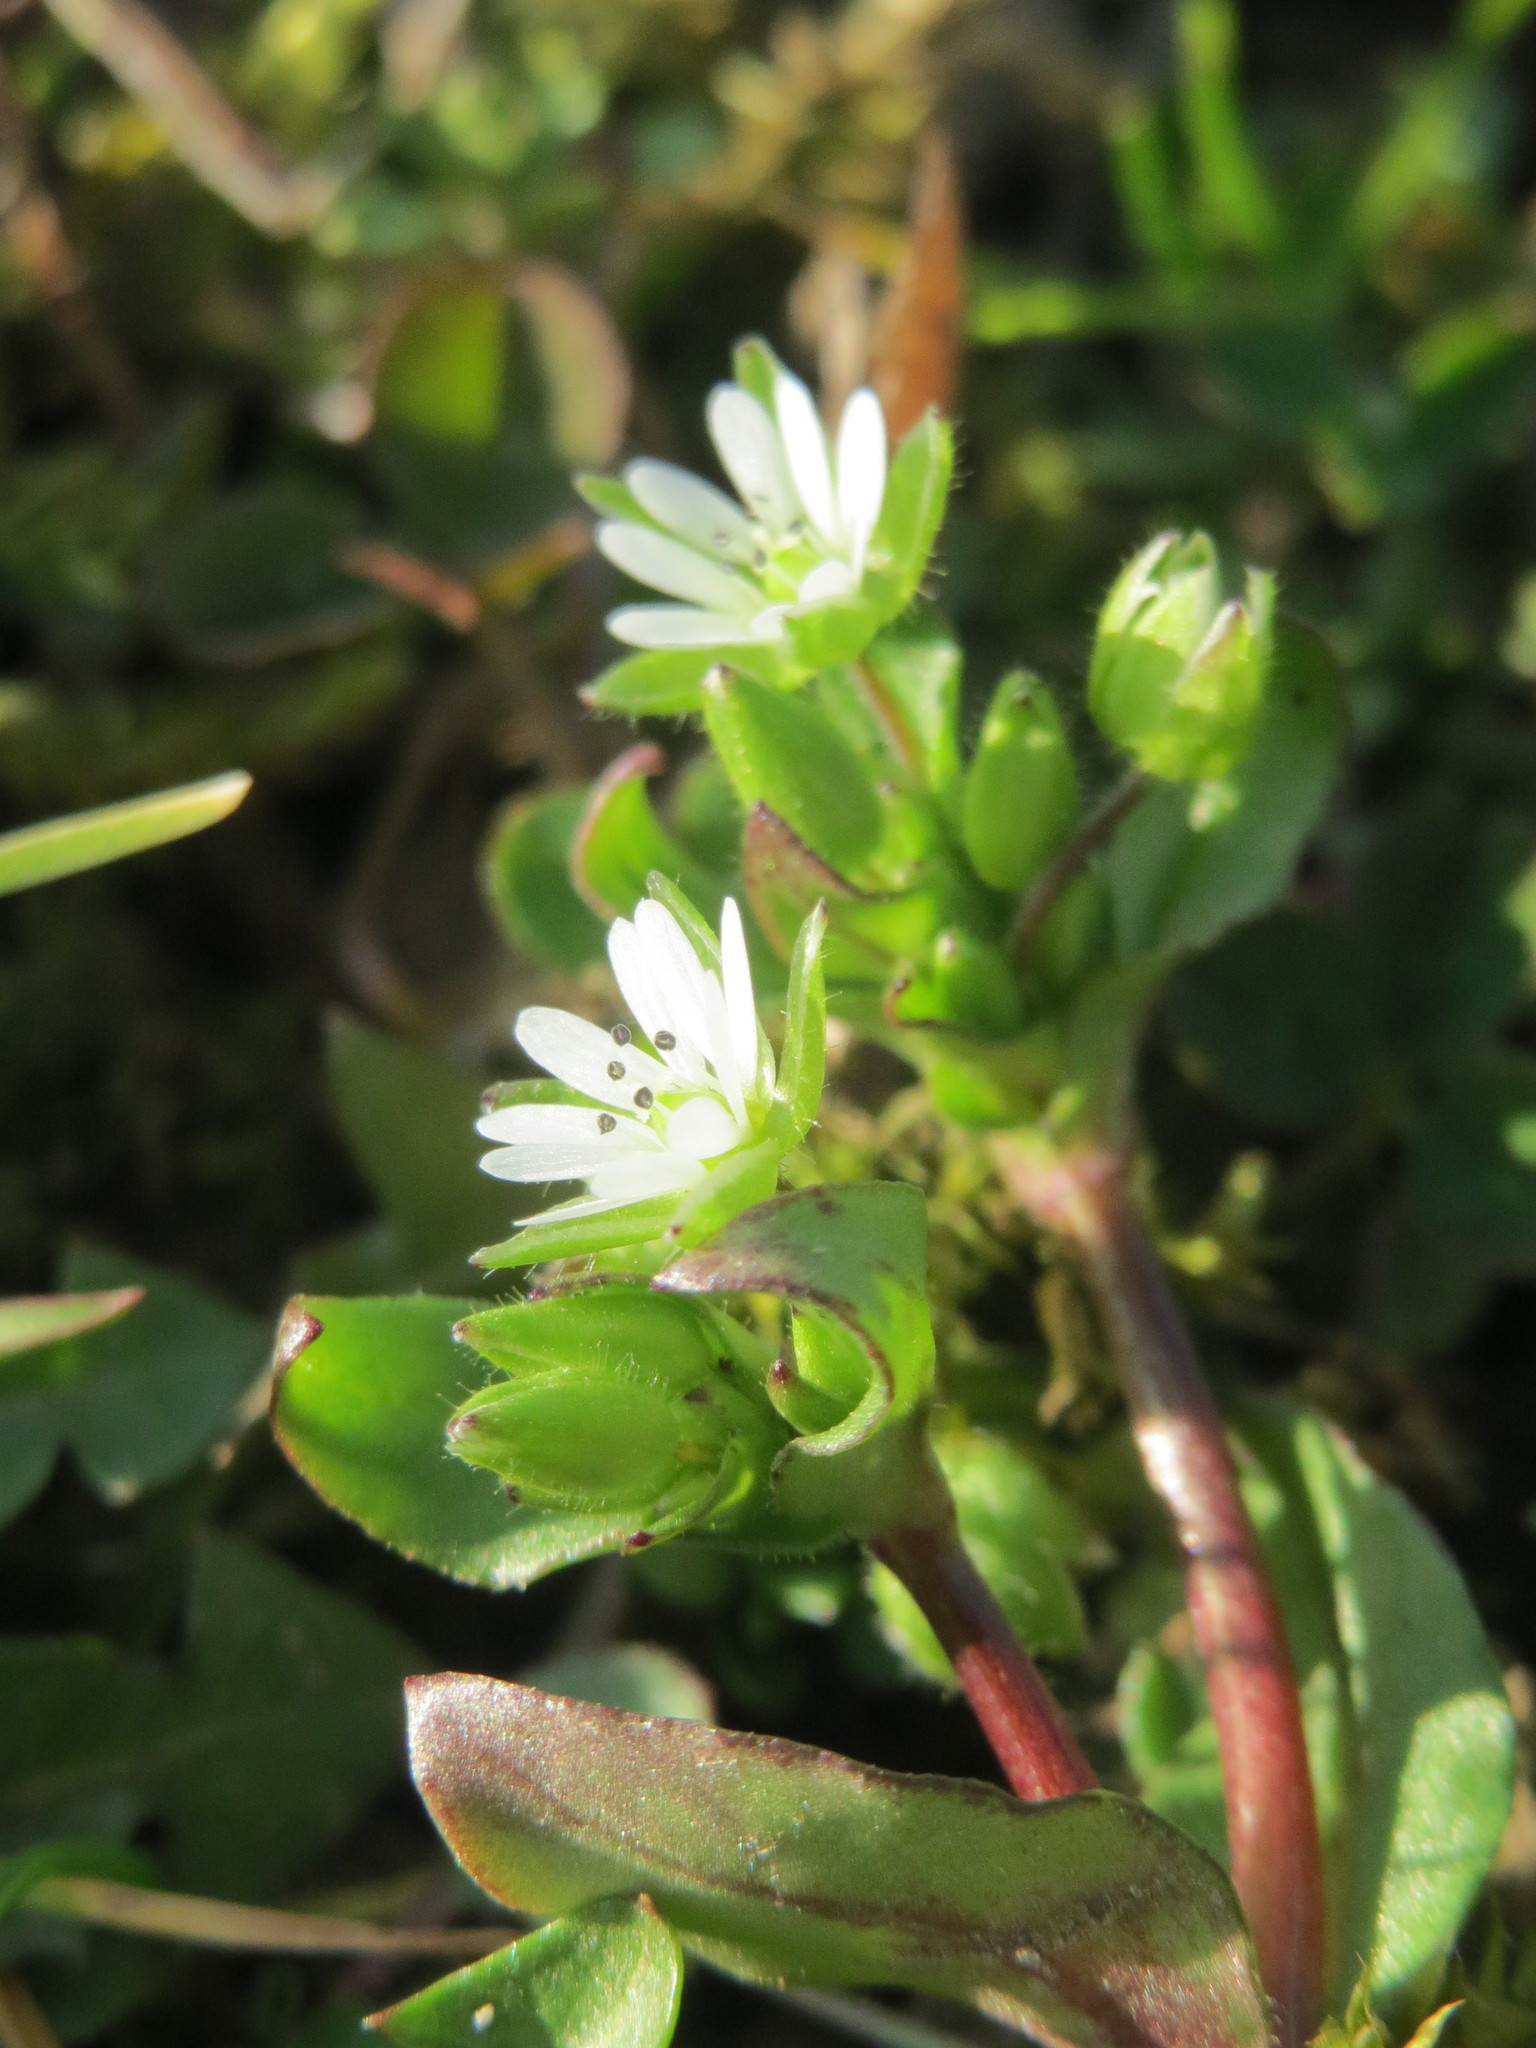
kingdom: Plantae
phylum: Tracheophyta
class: Magnoliopsida
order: Caryophyllales
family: Caryophyllaceae
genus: Stellaria
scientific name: Stellaria media
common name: Common chickweed
